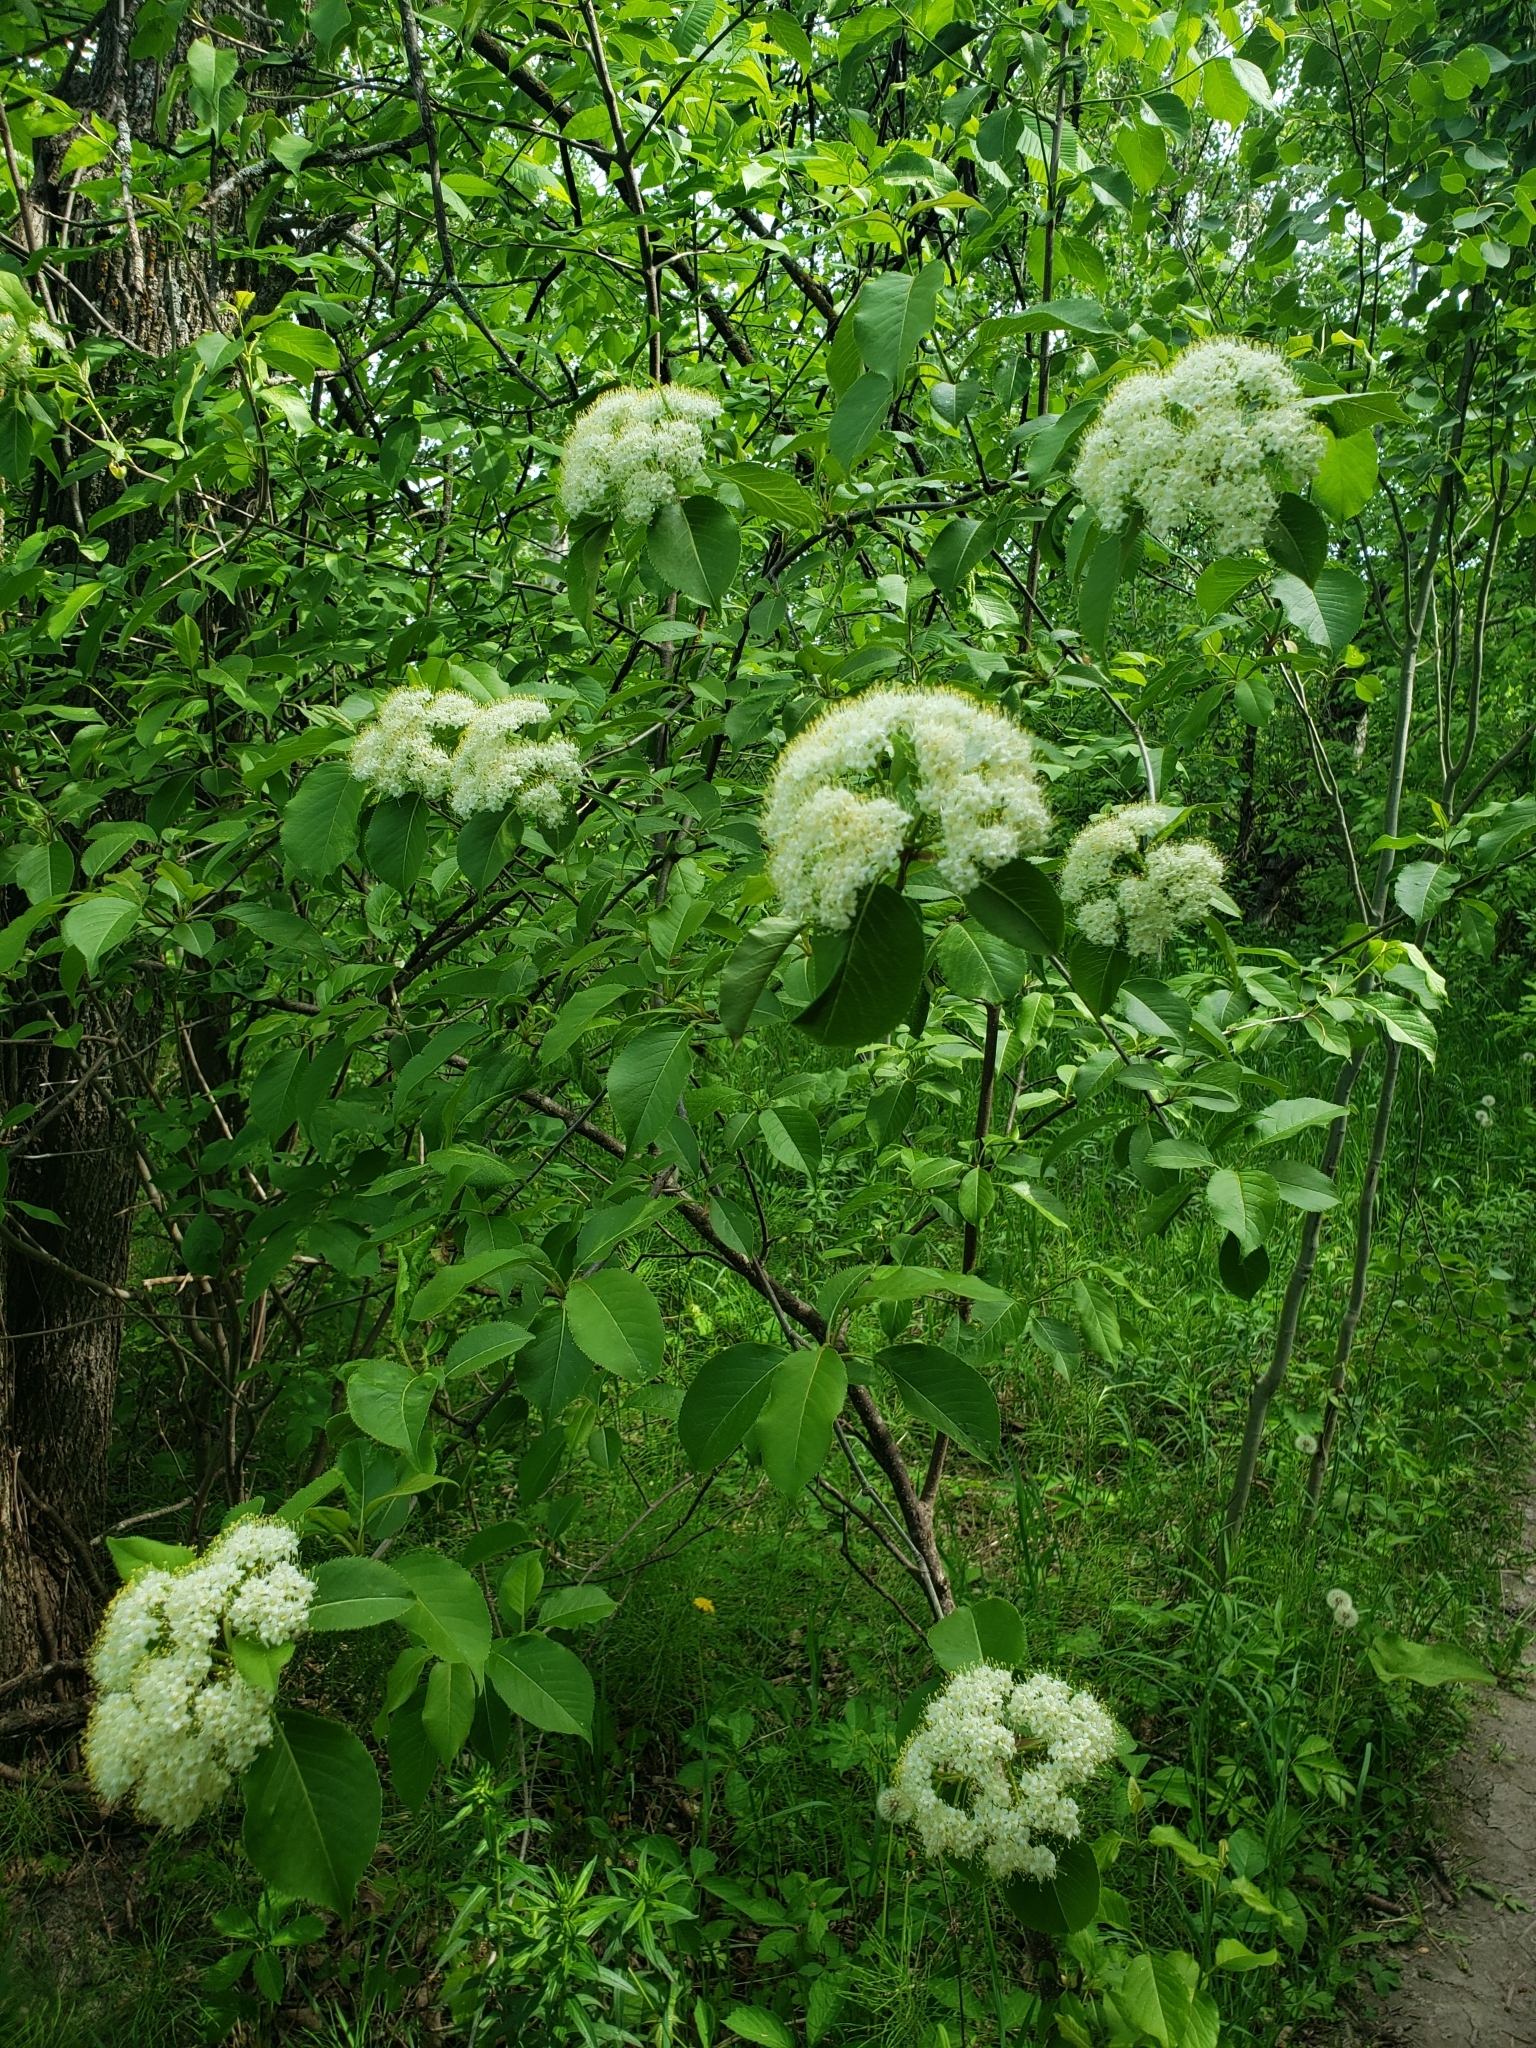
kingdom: Plantae
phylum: Tracheophyta
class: Magnoliopsida
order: Dipsacales
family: Viburnaceae
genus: Viburnum
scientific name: Viburnum lentago
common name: Black haw
